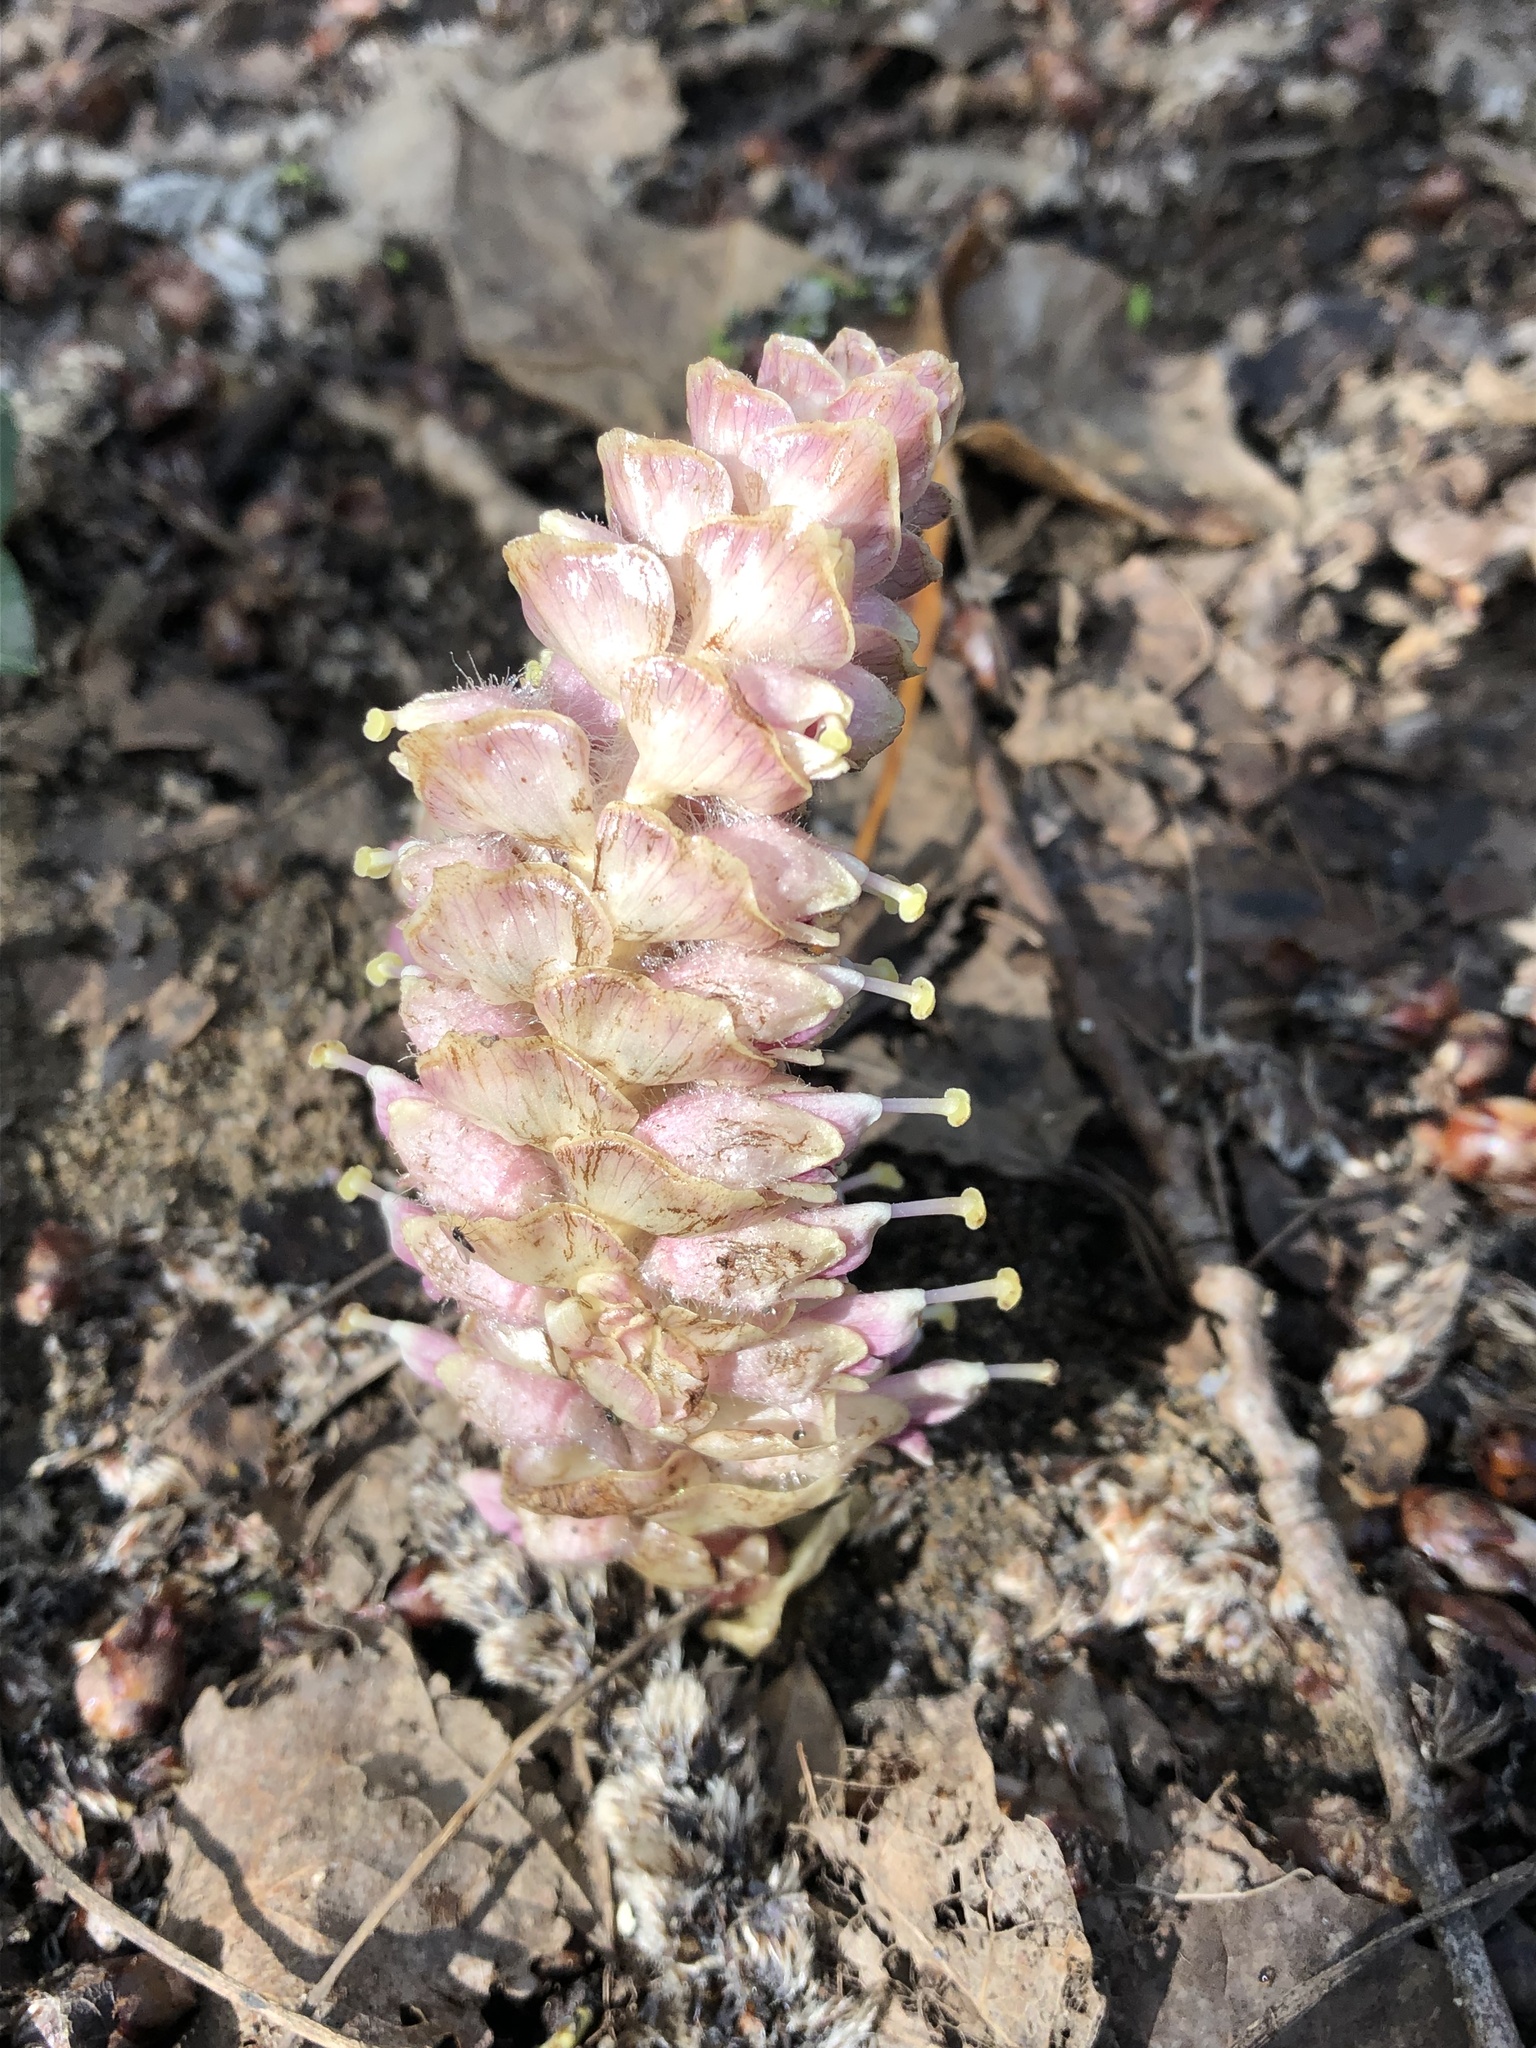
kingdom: Plantae
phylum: Tracheophyta
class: Magnoliopsida
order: Lamiales
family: Orobanchaceae
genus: Lathraea
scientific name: Lathraea squamaria
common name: Toothwort
